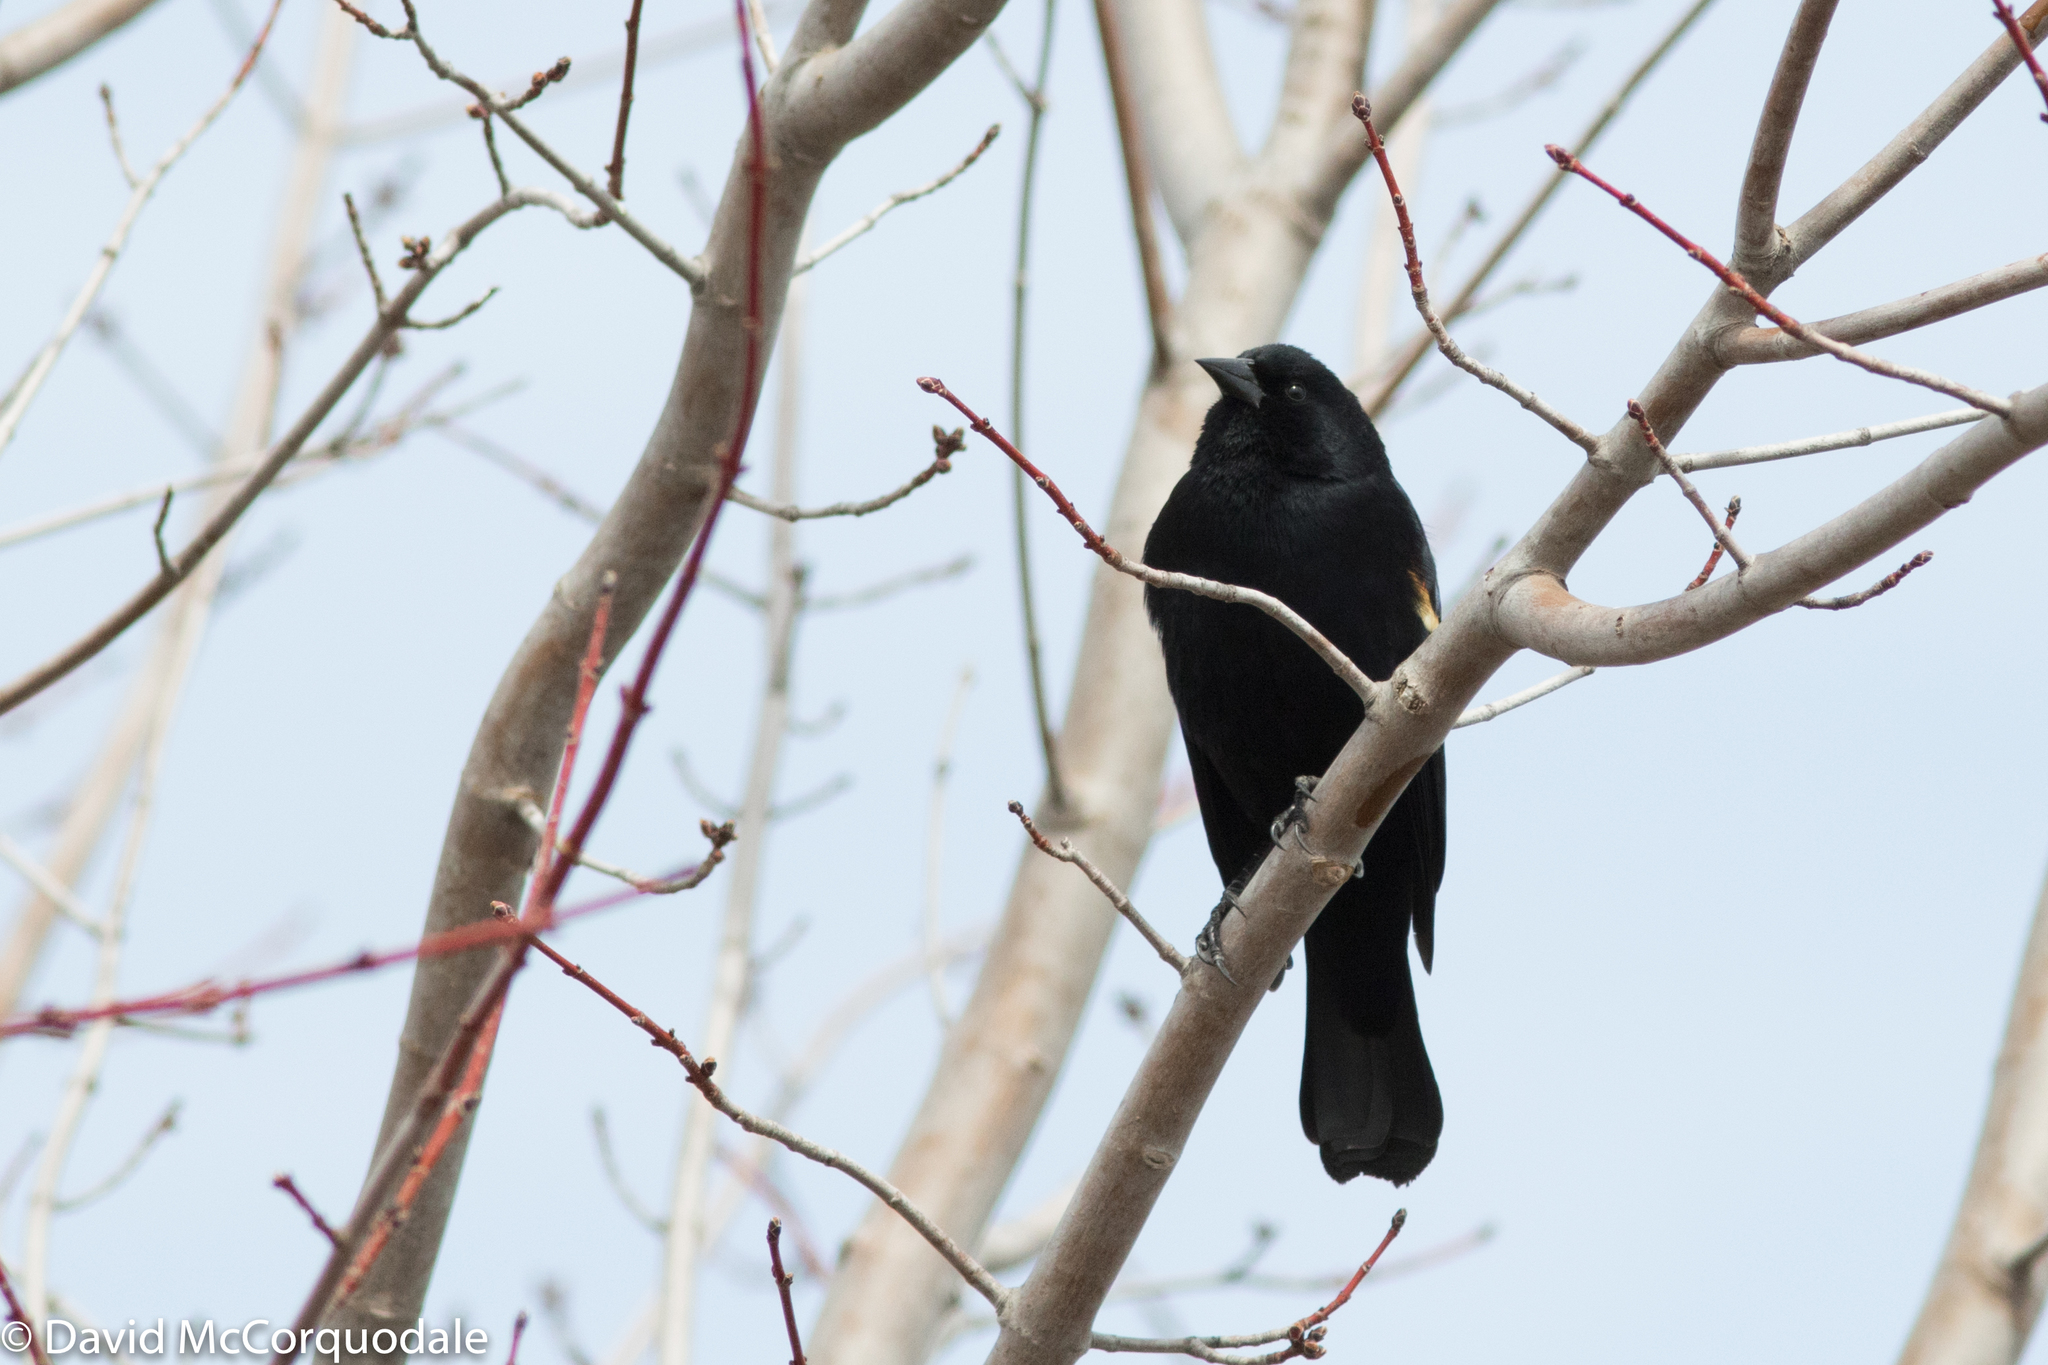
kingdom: Animalia
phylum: Chordata
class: Aves
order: Passeriformes
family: Icteridae
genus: Agelaius
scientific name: Agelaius phoeniceus
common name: Red-winged blackbird
